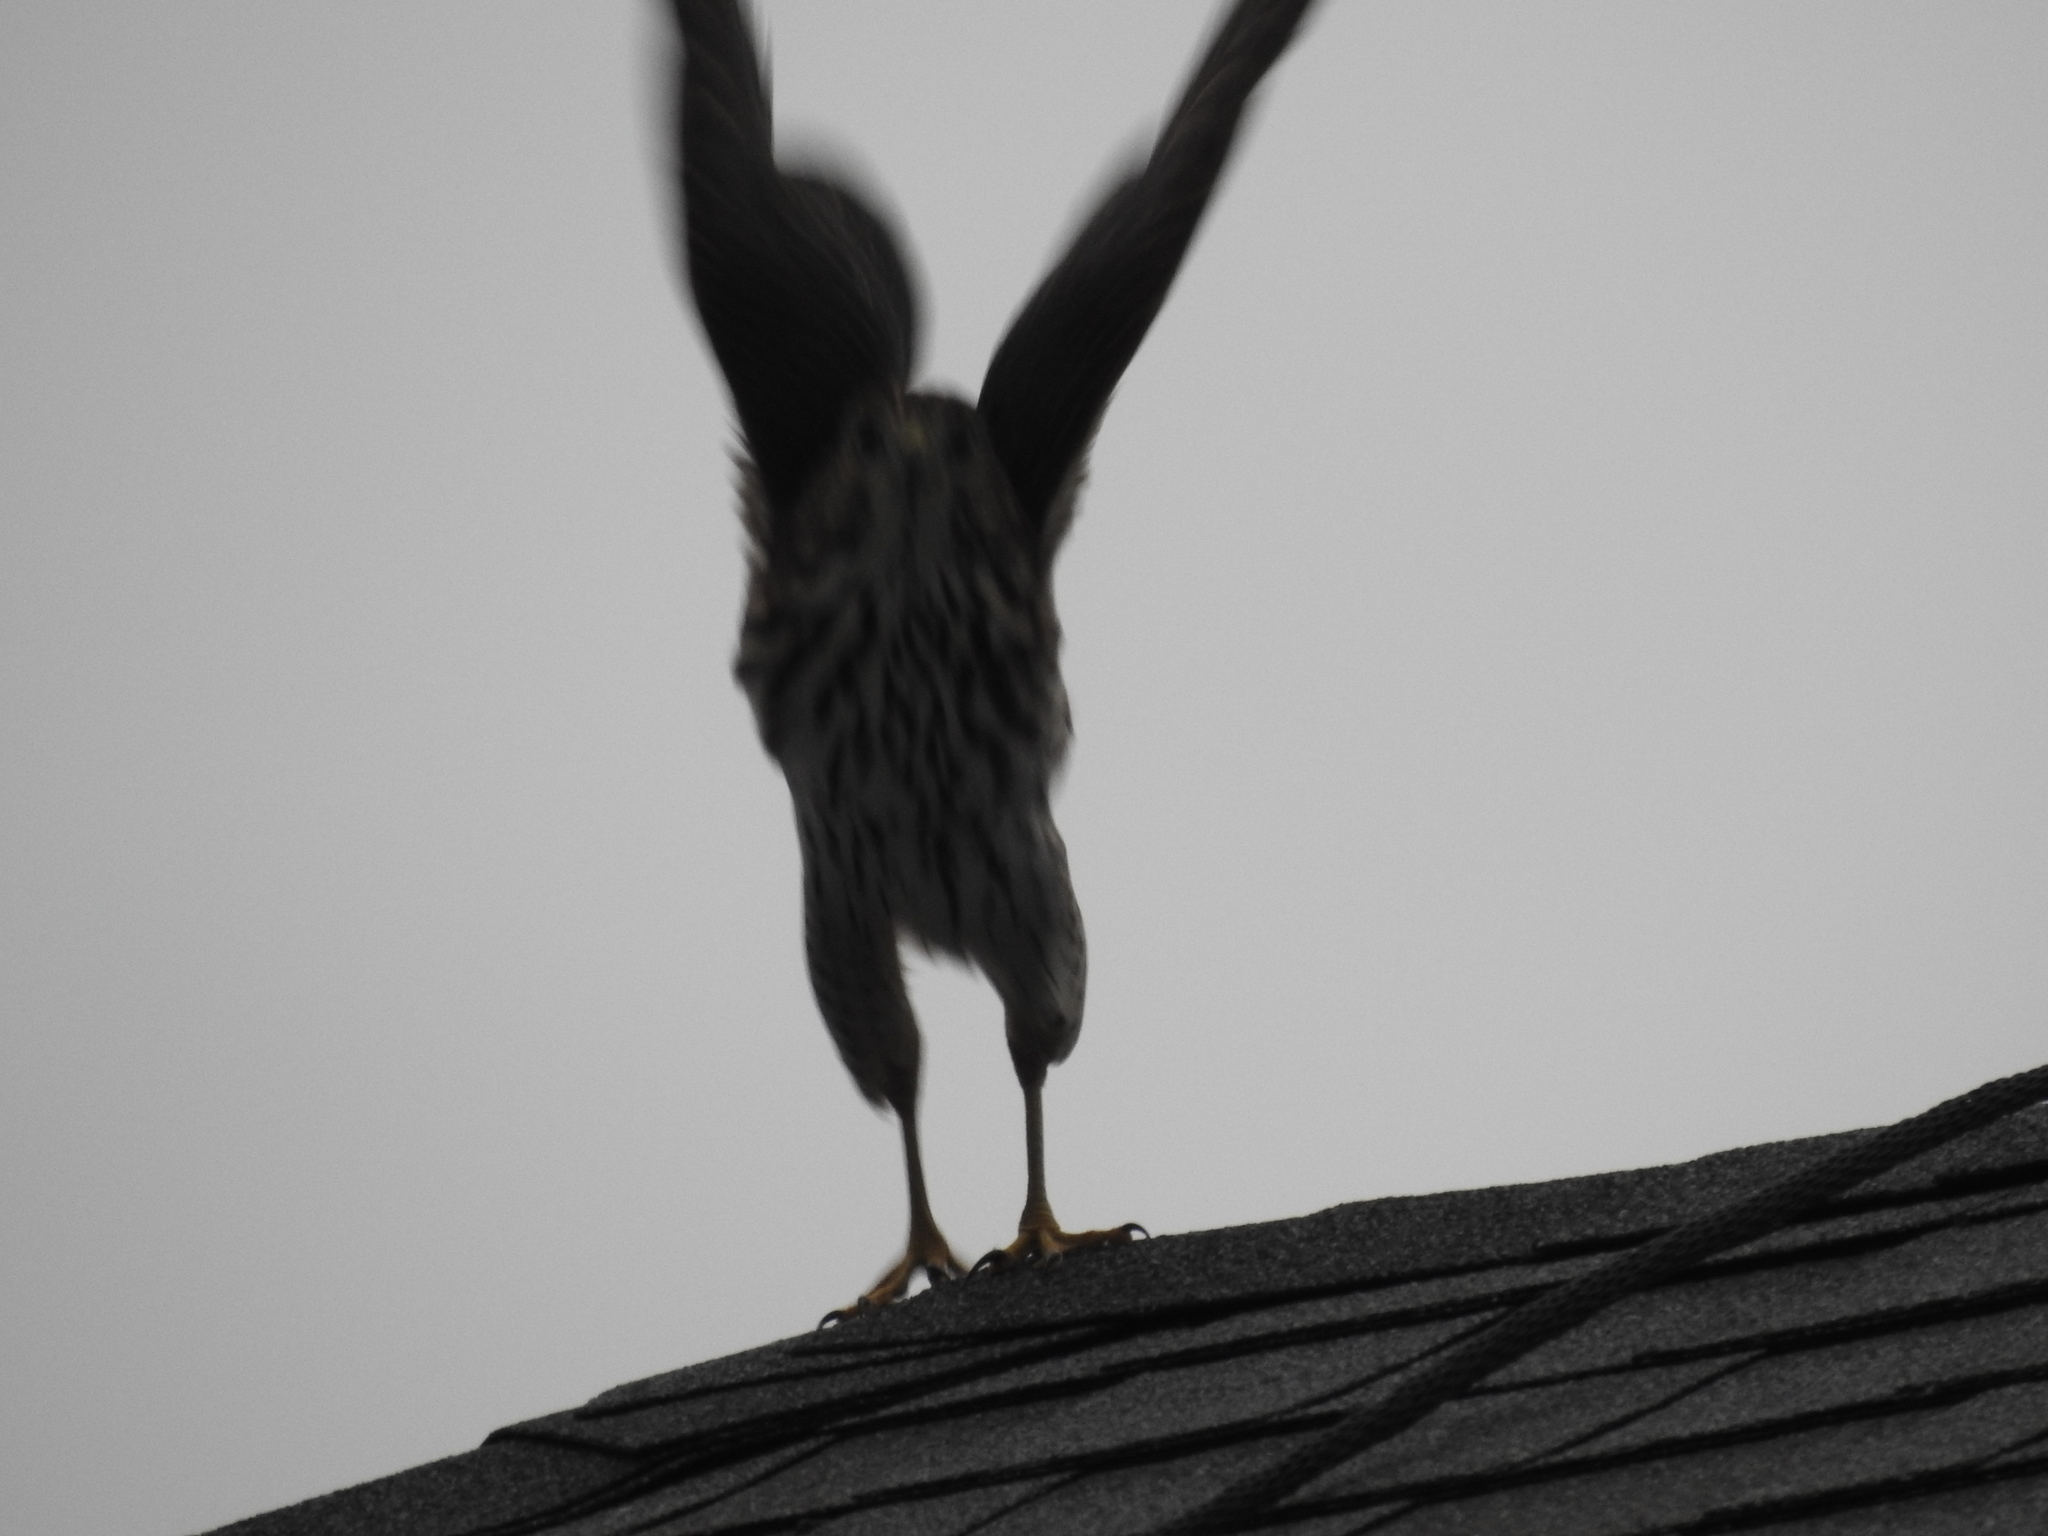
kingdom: Animalia
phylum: Chordata
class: Aves
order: Accipitriformes
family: Accipitridae
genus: Accipiter
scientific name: Accipiter cooperii
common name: Cooper's hawk
